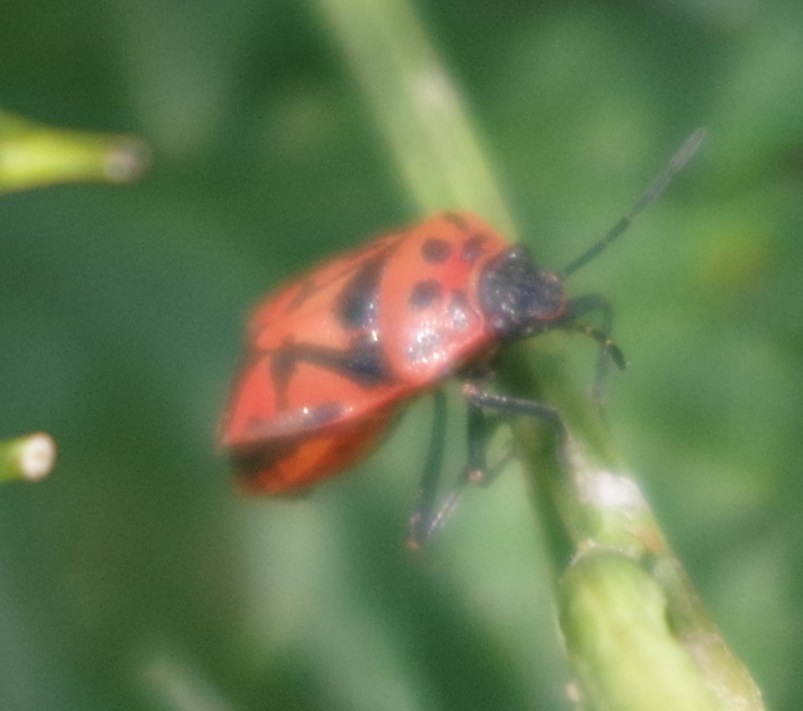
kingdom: Animalia
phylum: Arthropoda
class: Insecta
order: Hemiptera
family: Pentatomidae
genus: Eurydema
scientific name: Eurydema ornata
